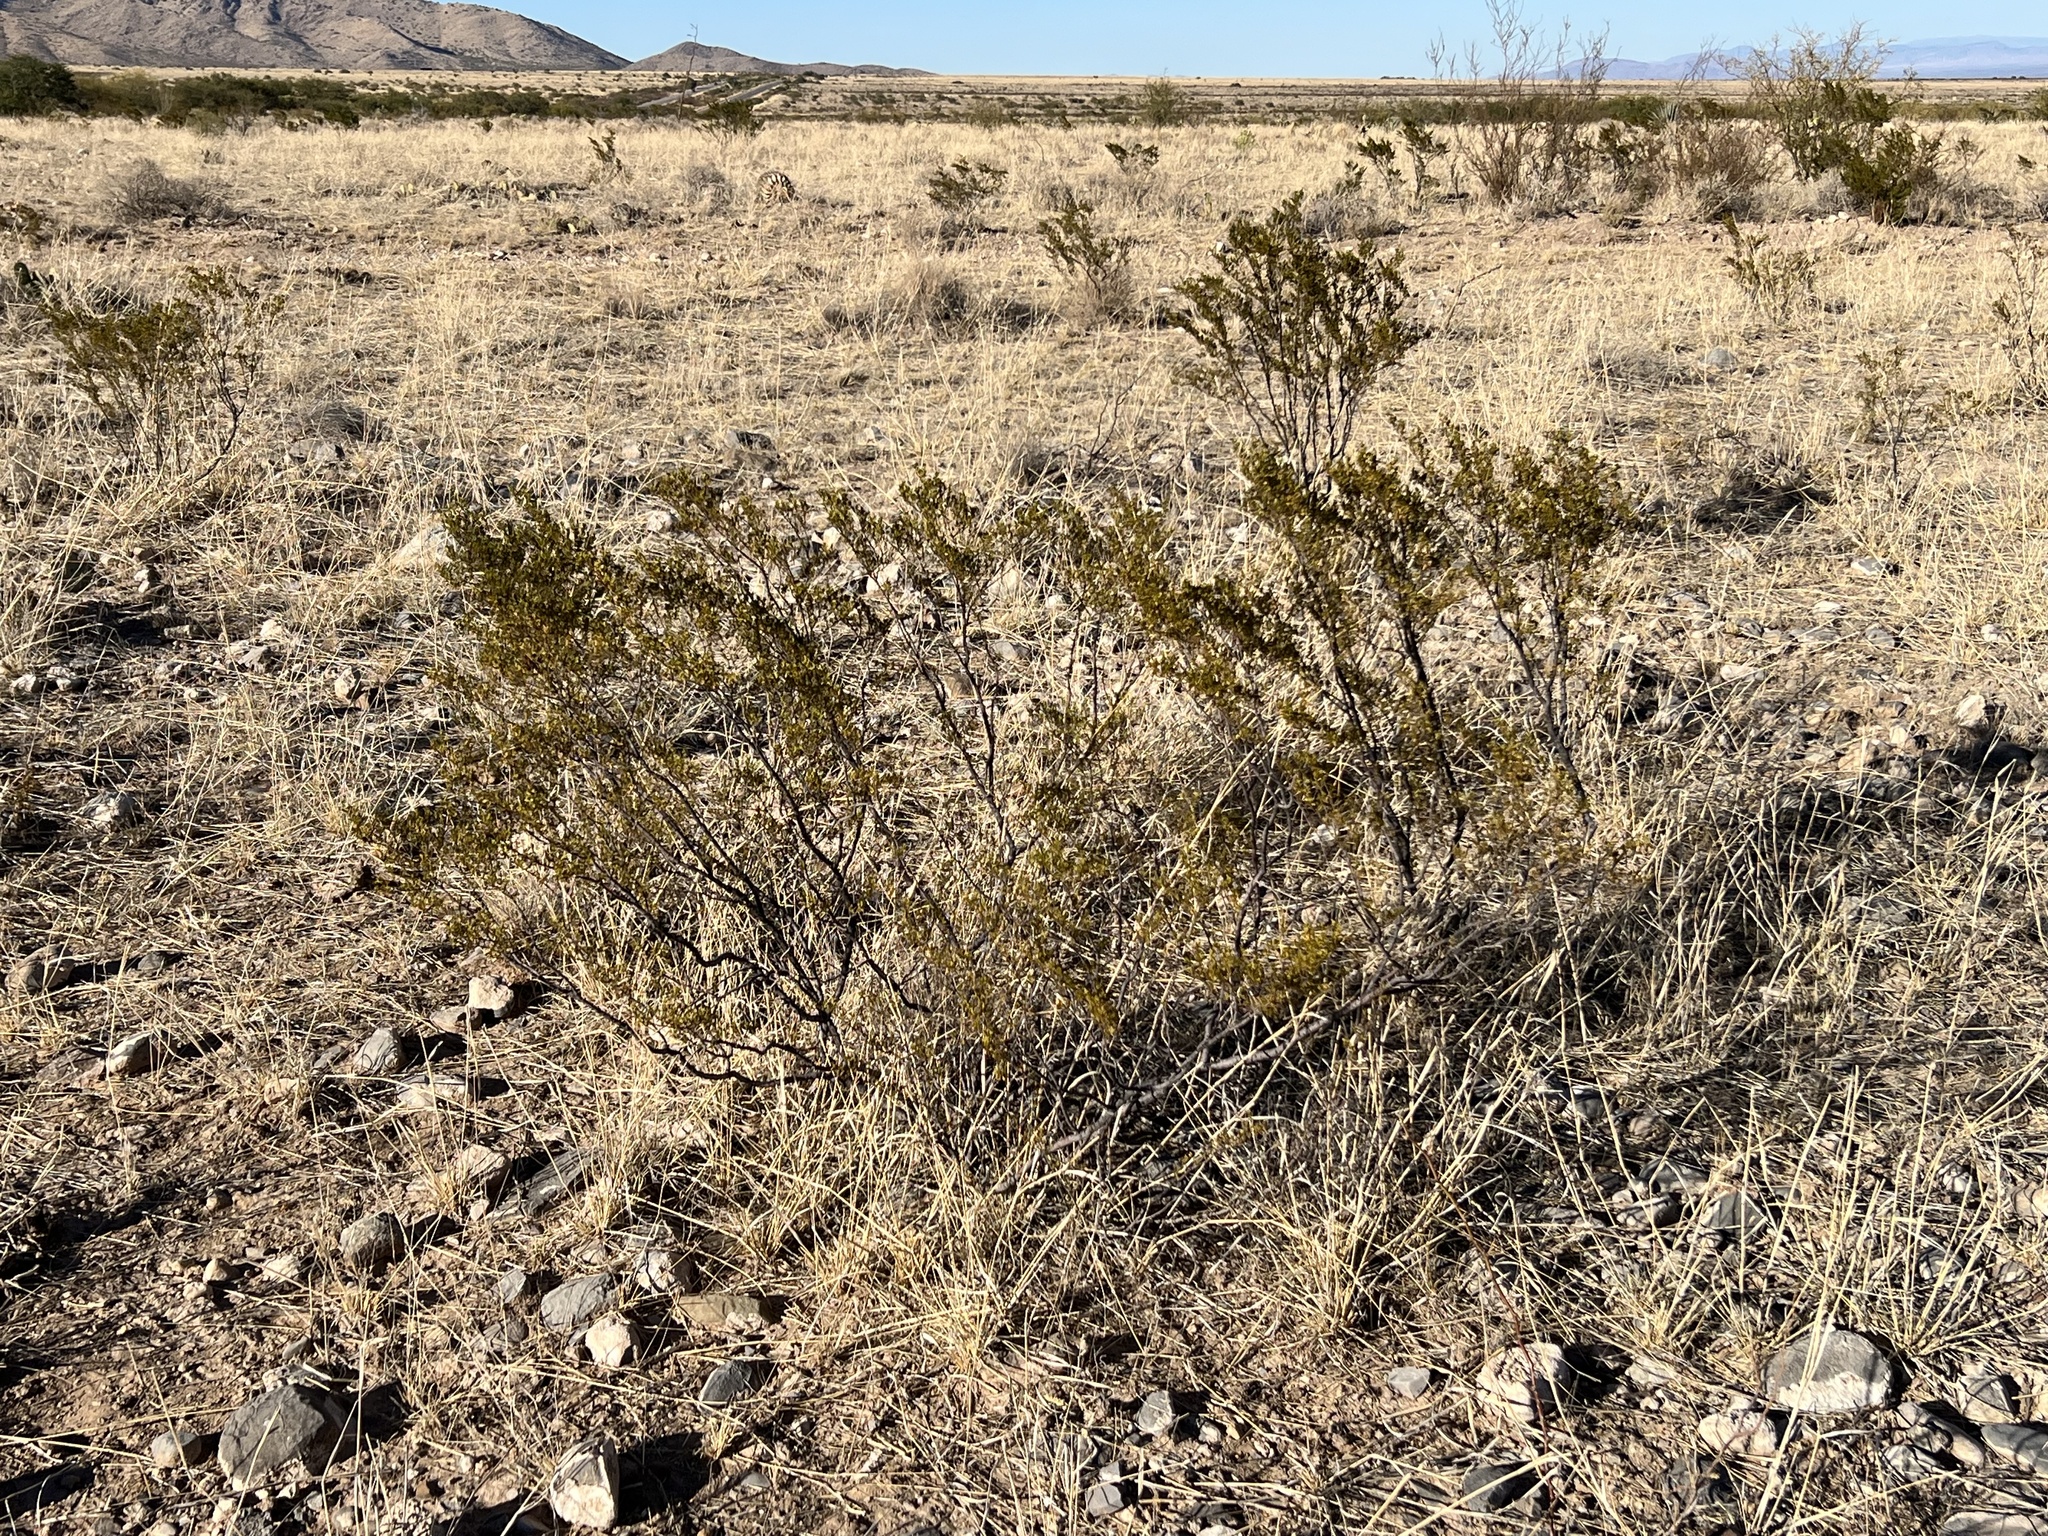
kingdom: Plantae
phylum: Tracheophyta
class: Magnoliopsida
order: Zygophyllales
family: Zygophyllaceae
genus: Larrea
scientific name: Larrea tridentata
